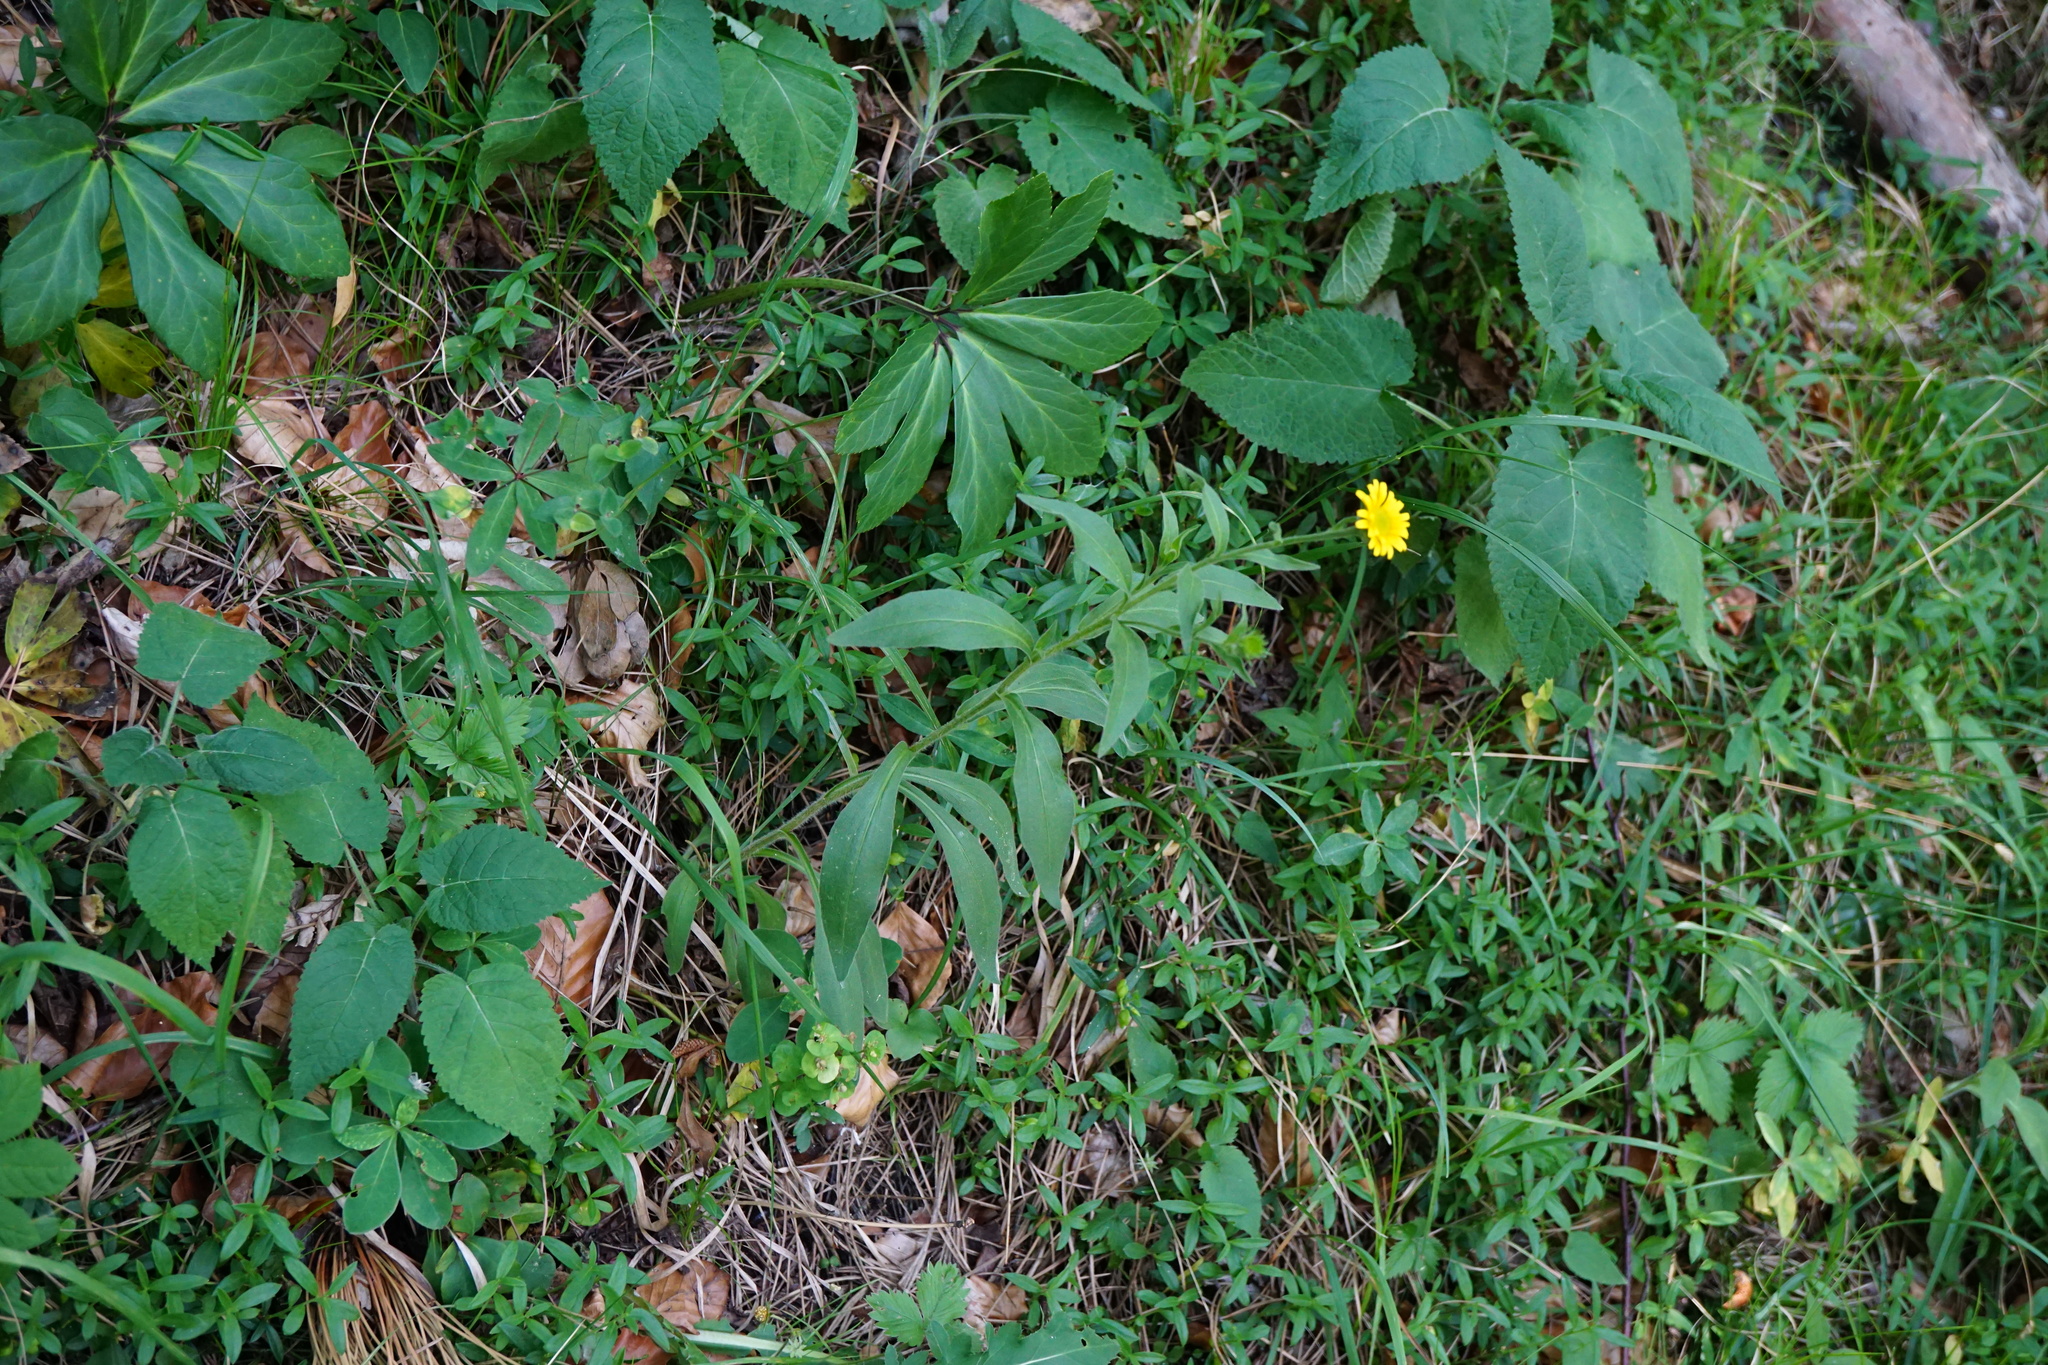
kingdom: Plantae
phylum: Tracheophyta
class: Magnoliopsida
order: Asterales
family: Asteraceae
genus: Buphthalmum
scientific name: Buphthalmum salicifolium
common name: Willow-leaved yellow-oxeye
